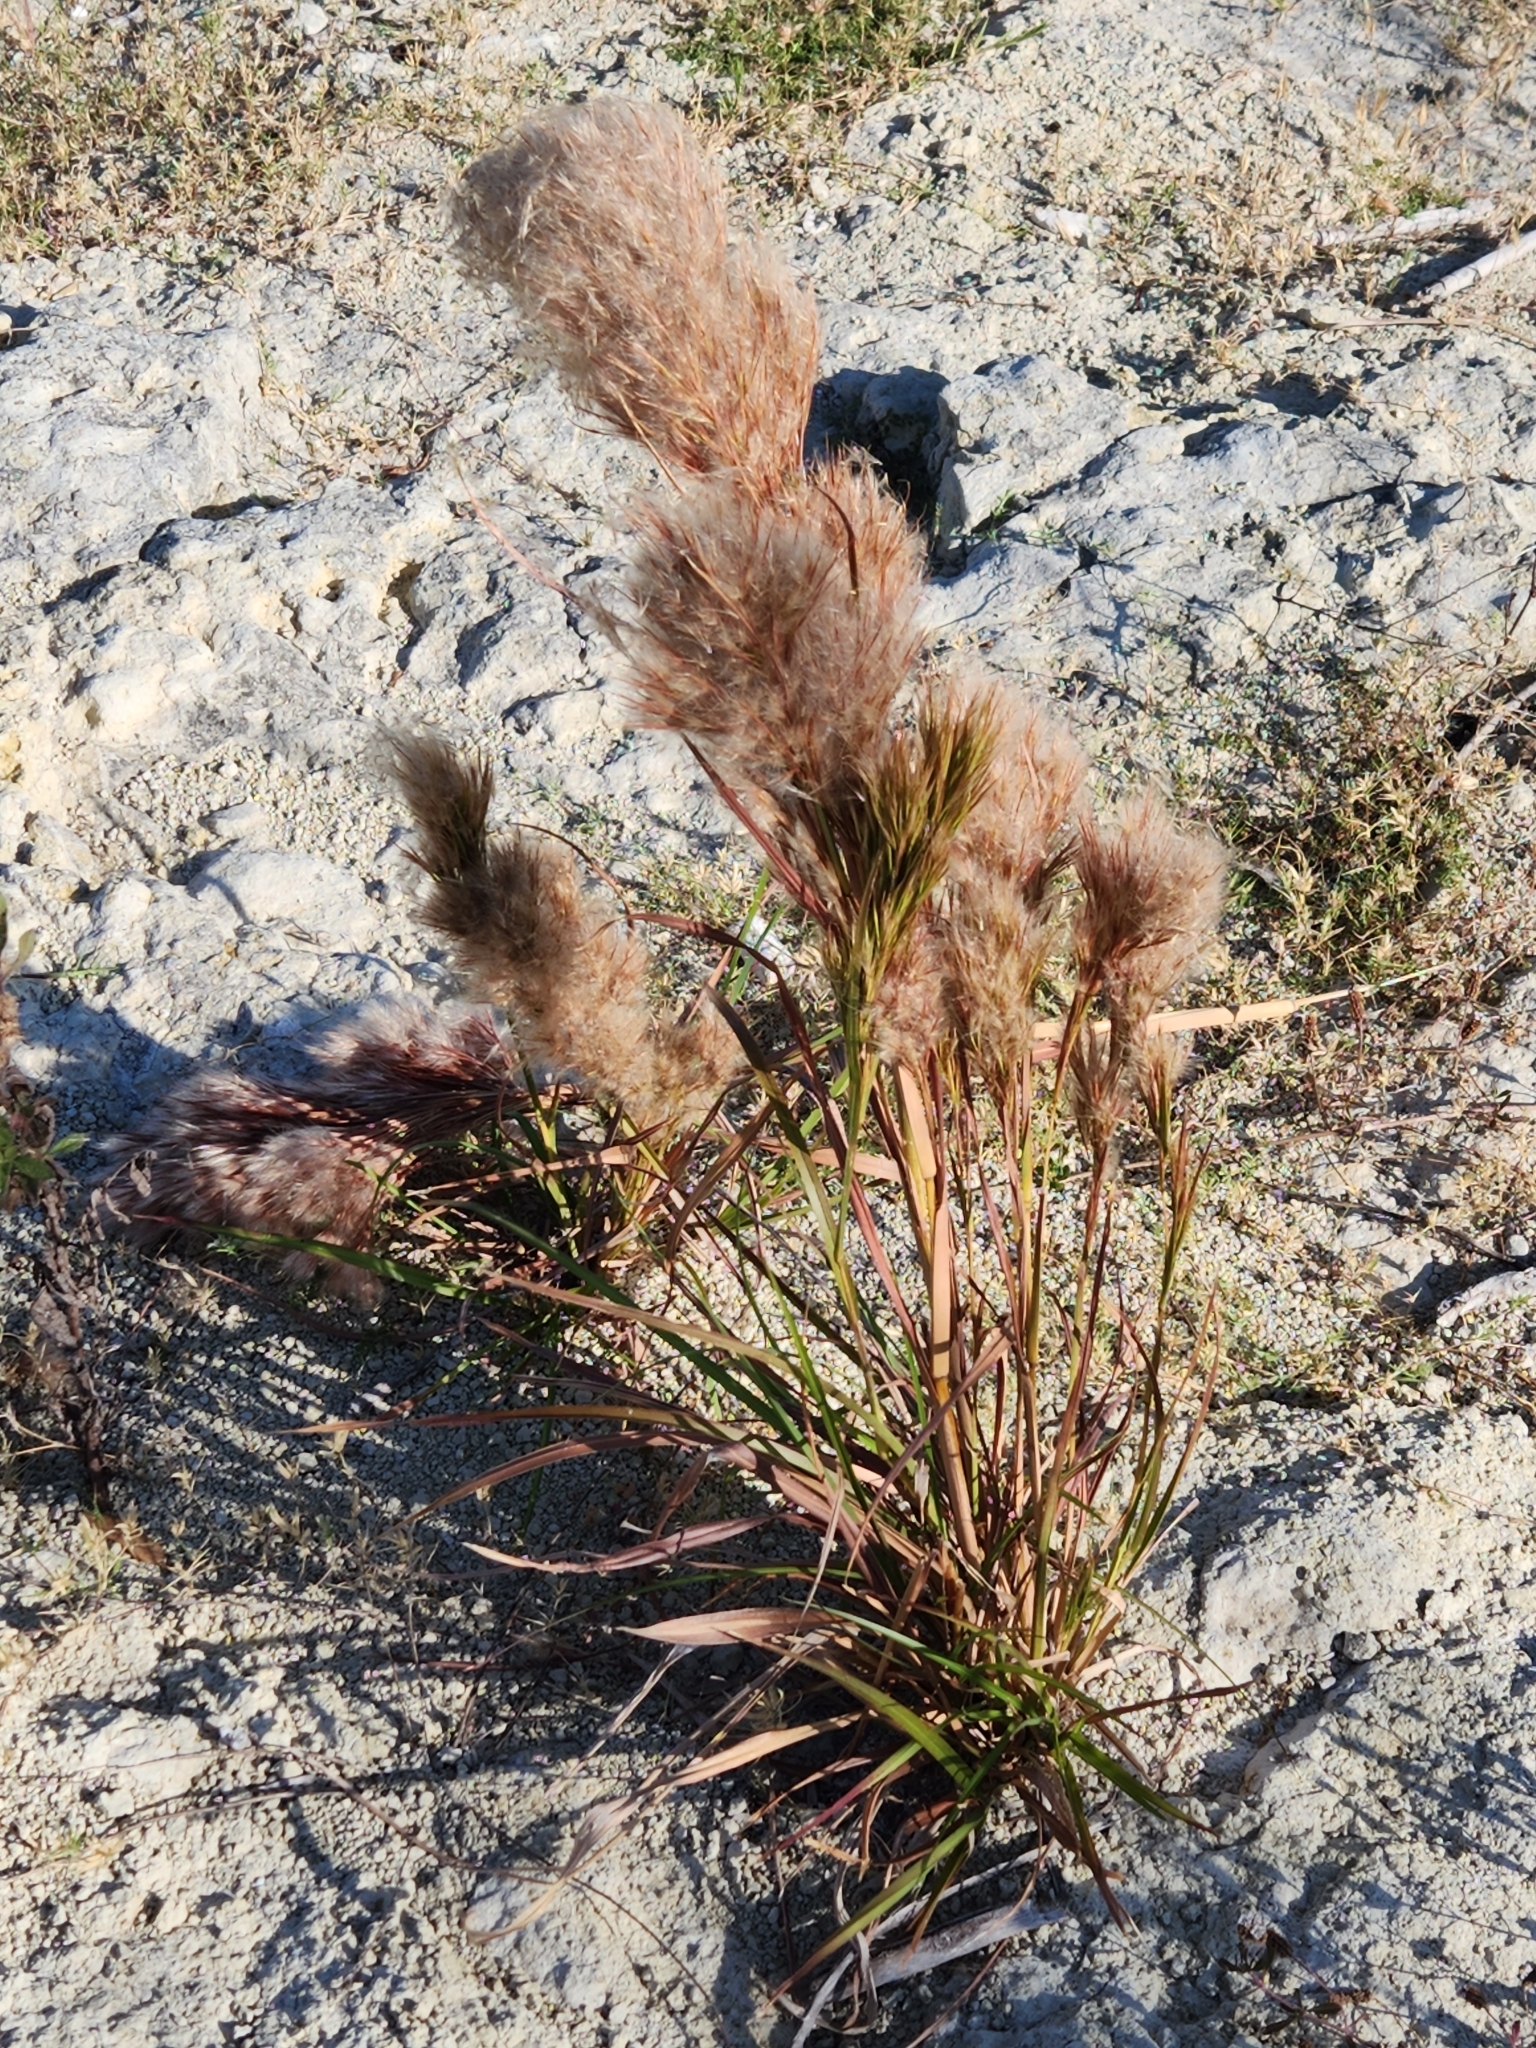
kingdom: Plantae
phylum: Tracheophyta
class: Liliopsida
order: Poales
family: Poaceae
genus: Andropogon
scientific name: Andropogon tenuispatheus
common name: Bushy bluestem
